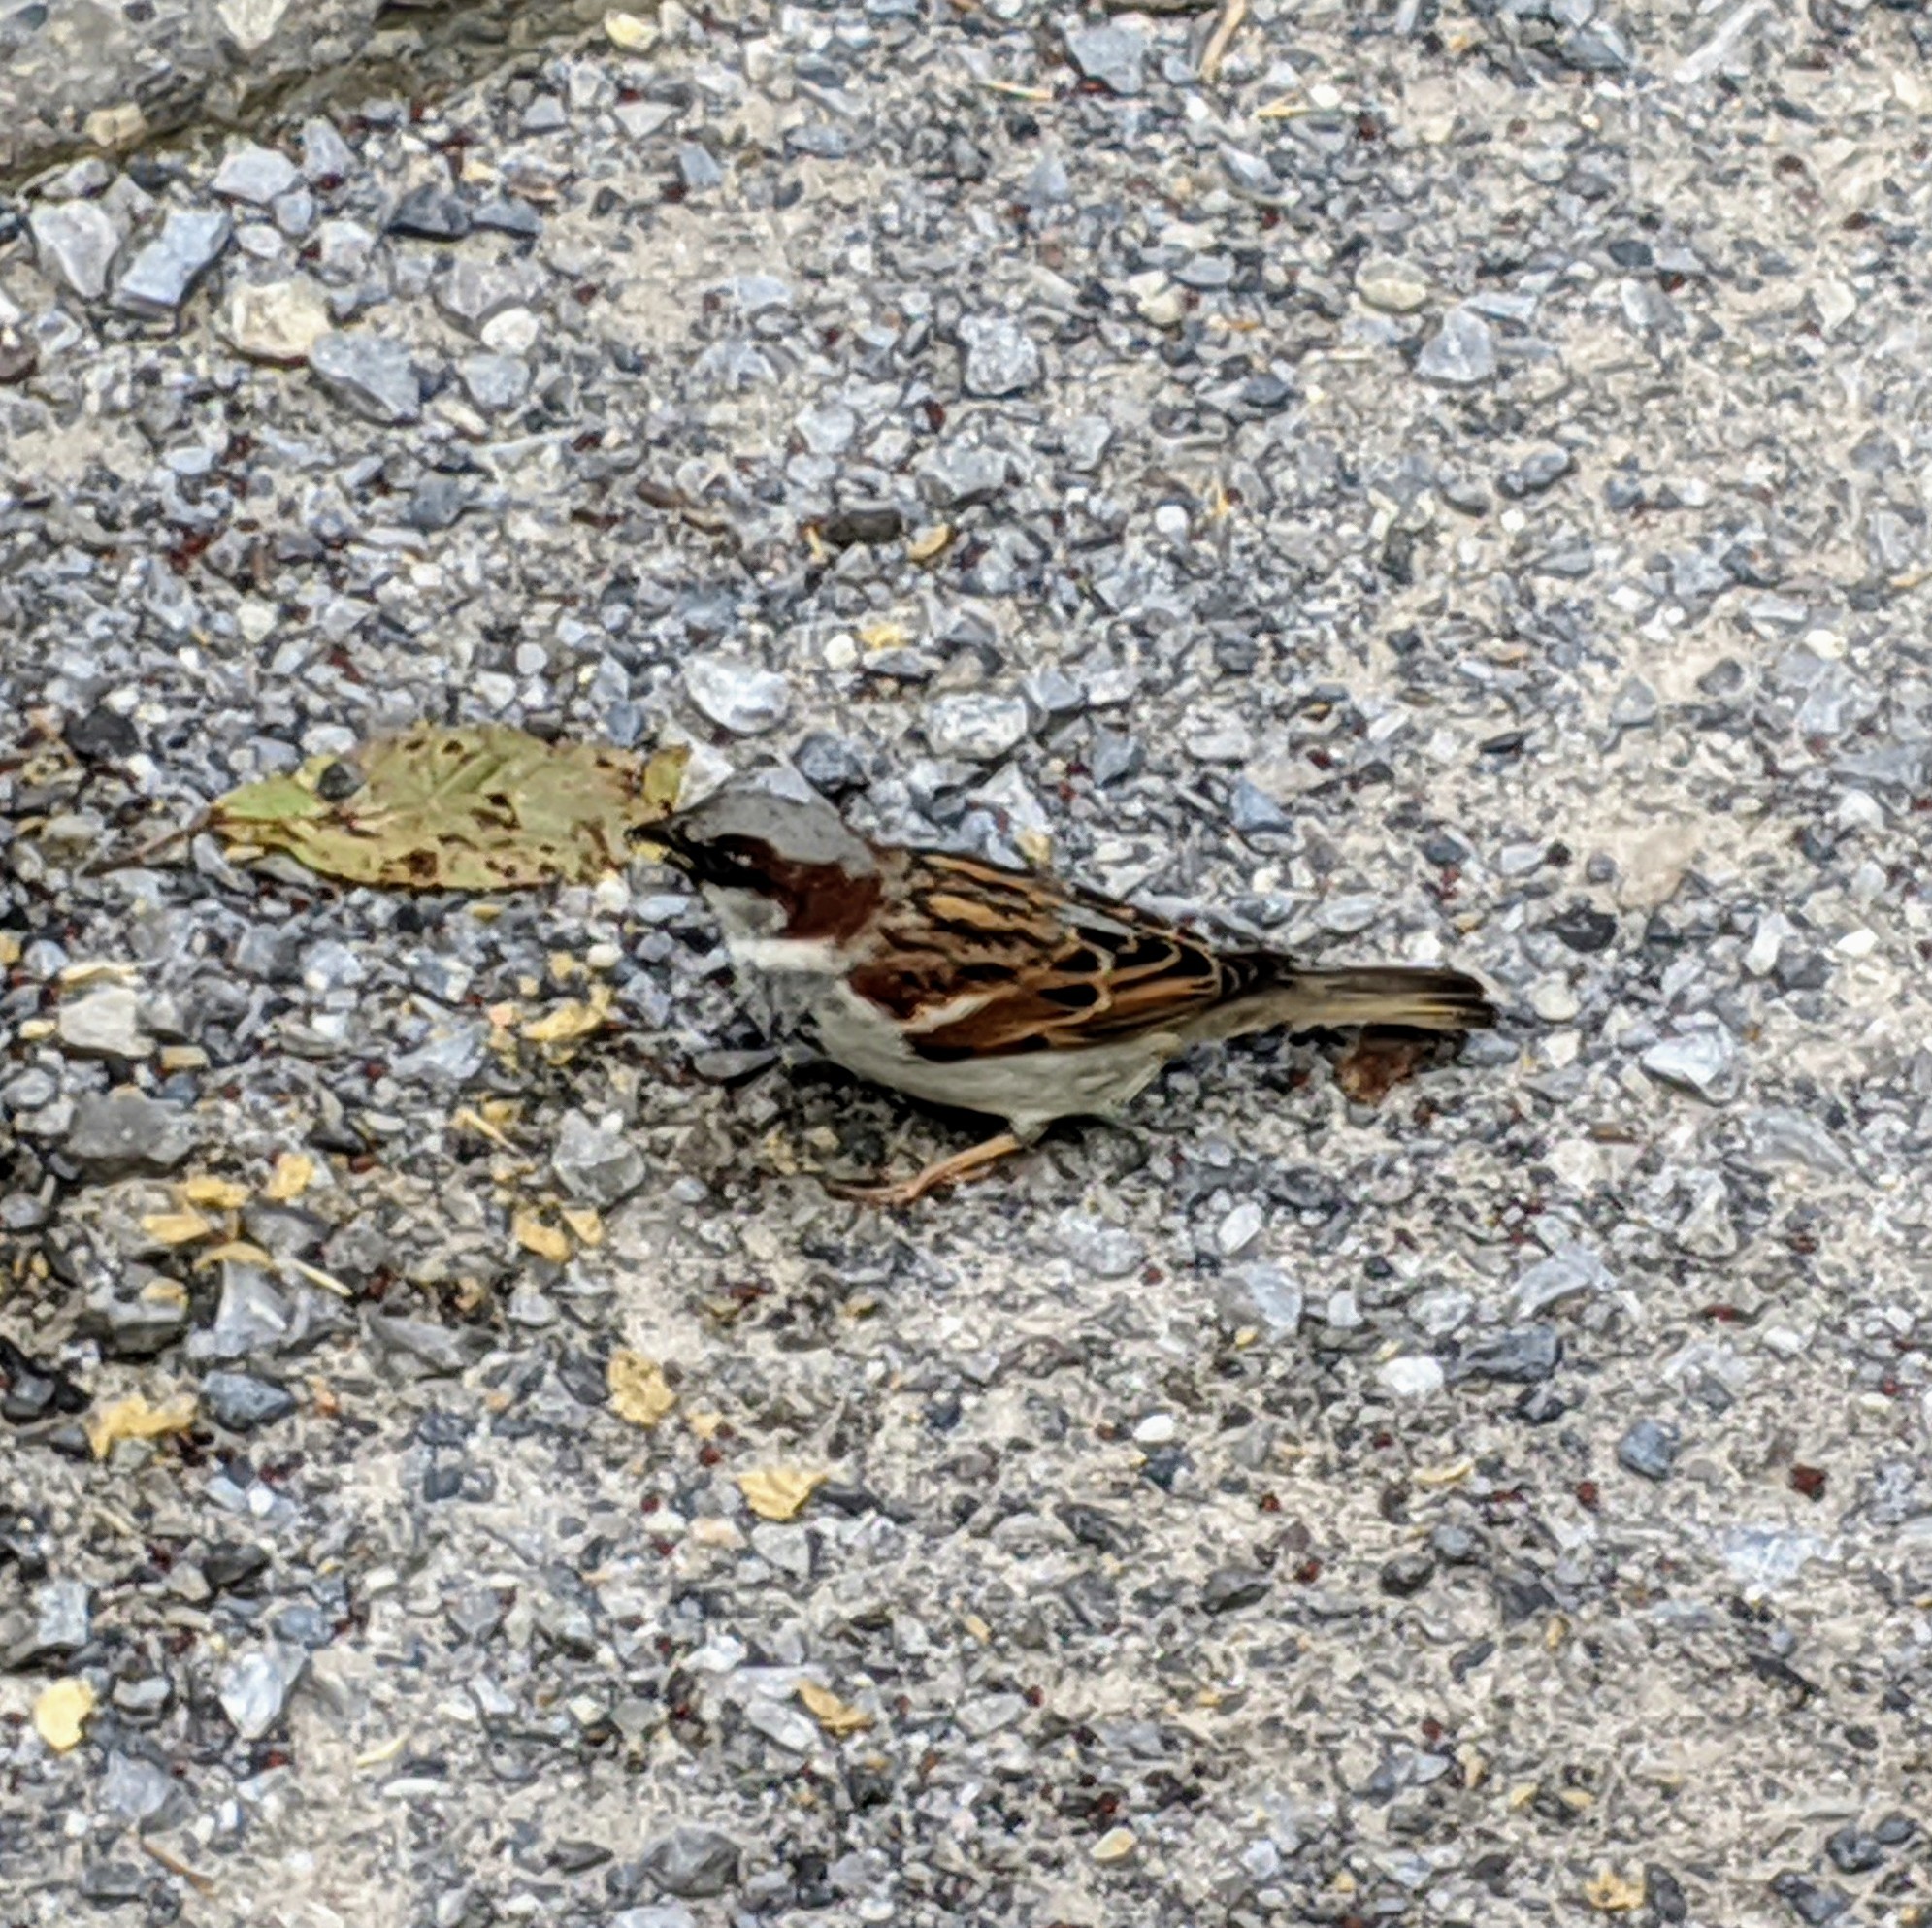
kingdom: Animalia
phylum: Chordata
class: Aves
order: Passeriformes
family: Passeridae
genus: Passer
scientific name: Passer domesticus
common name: House sparrow
